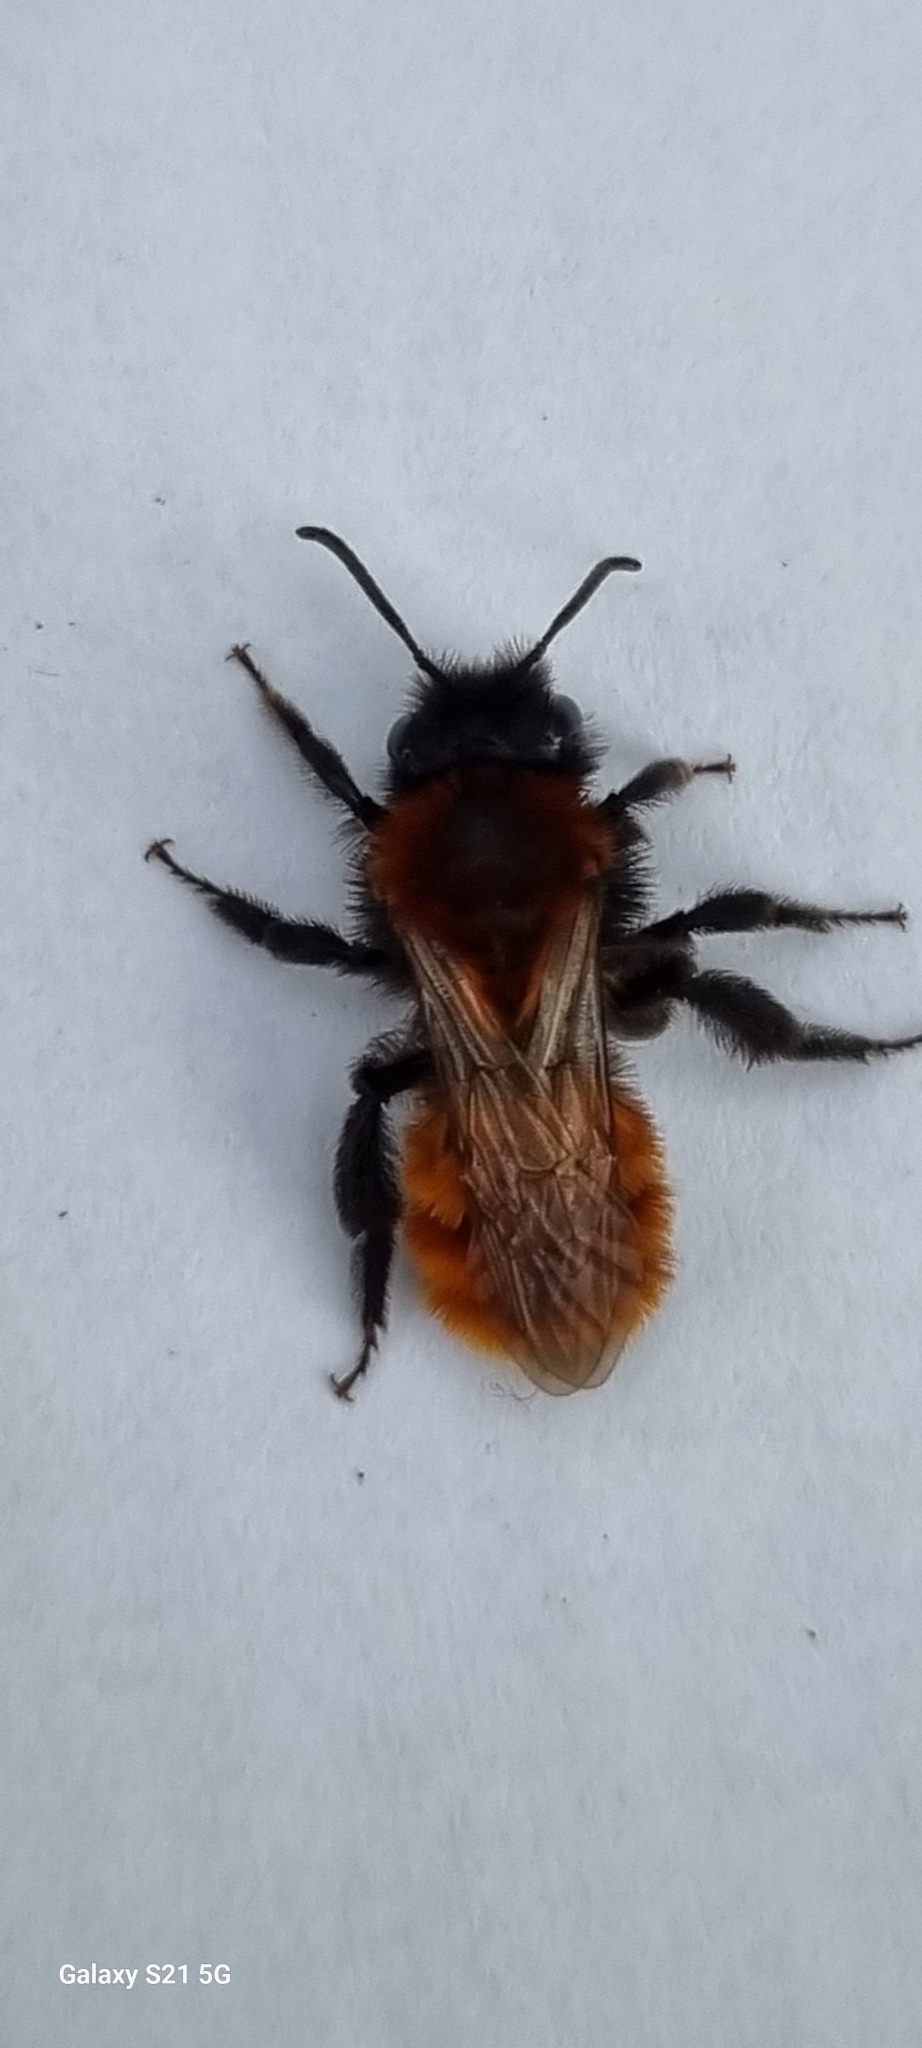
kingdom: Animalia
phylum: Arthropoda
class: Insecta
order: Hymenoptera
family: Andrenidae
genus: Andrena
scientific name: Andrena fulva
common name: Tawny mining bee
